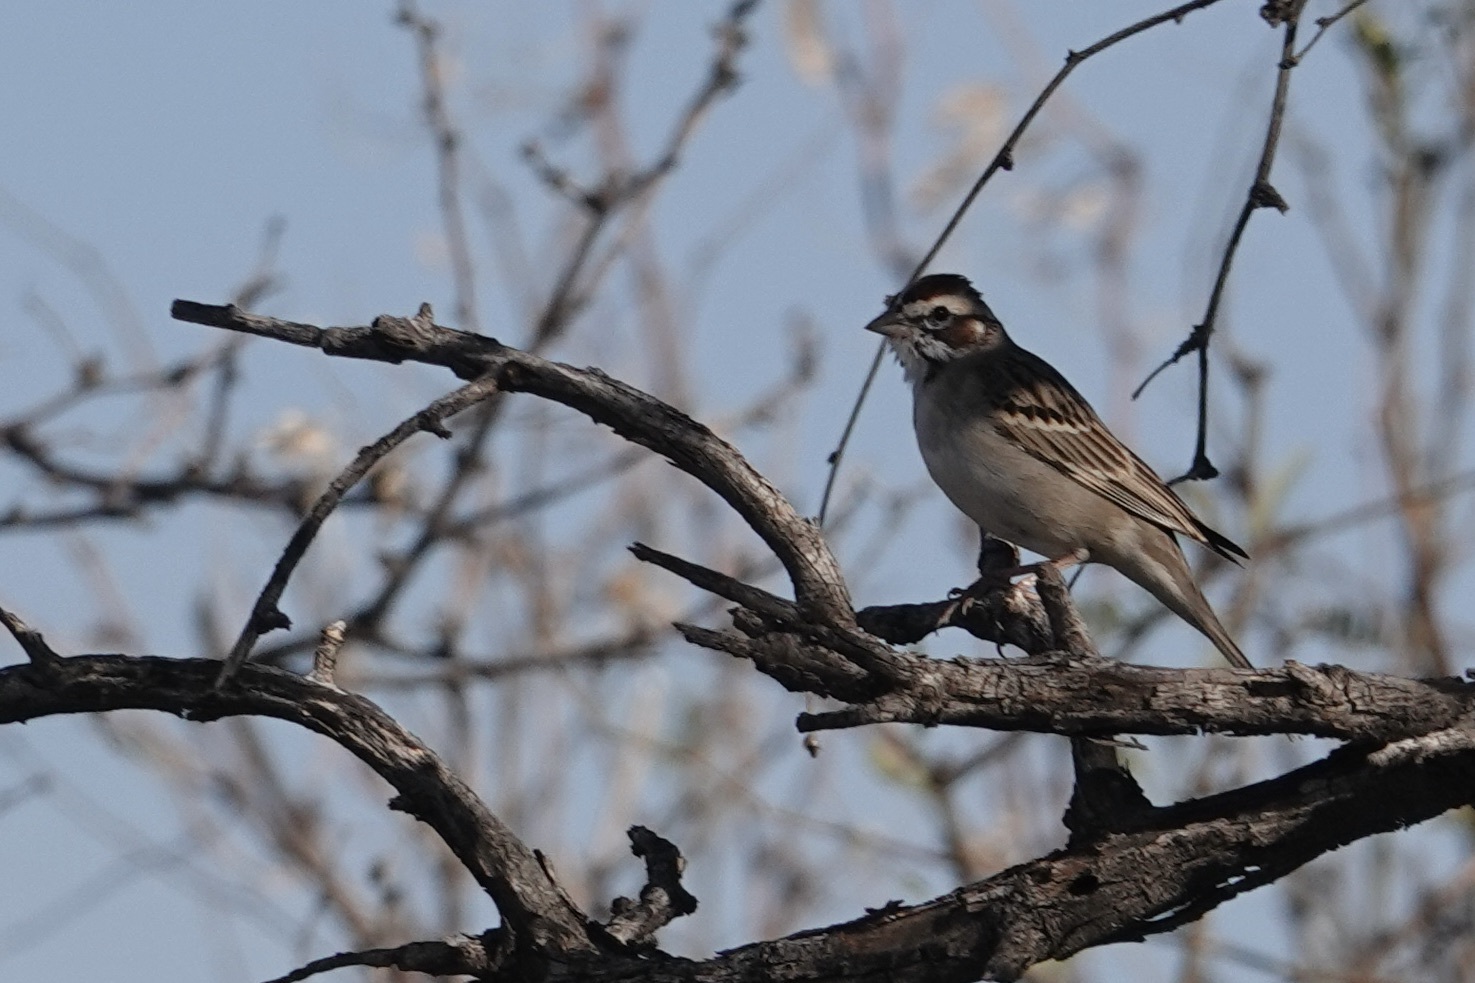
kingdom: Animalia
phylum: Chordata
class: Aves
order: Passeriformes
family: Passerellidae
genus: Chondestes
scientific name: Chondestes grammacus
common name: Lark sparrow
